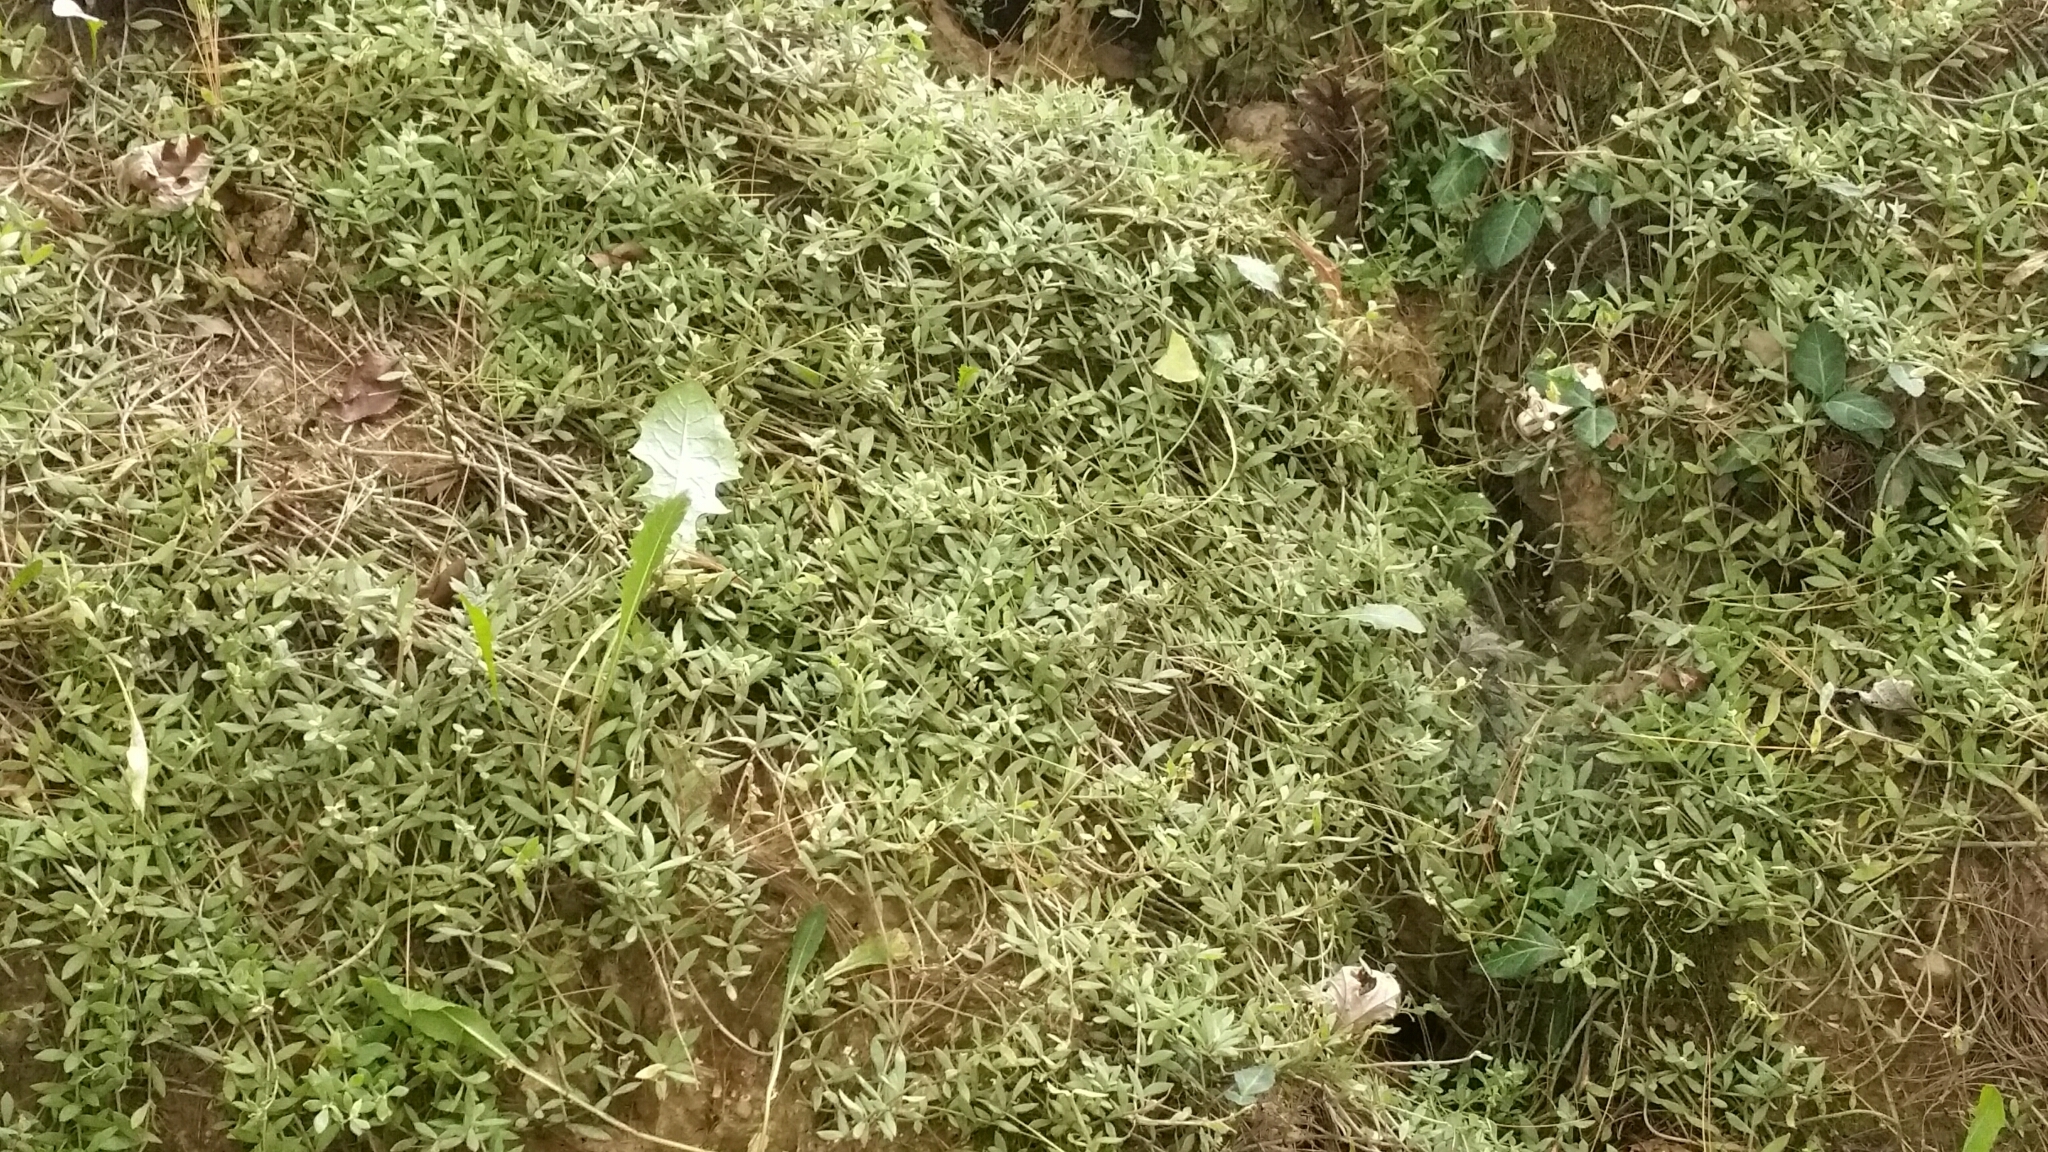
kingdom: Plantae
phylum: Tracheophyta
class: Magnoliopsida
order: Saxifragales
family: Crassulaceae
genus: Sedum
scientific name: Sedum sarmentosum
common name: Stringy stonecrop
